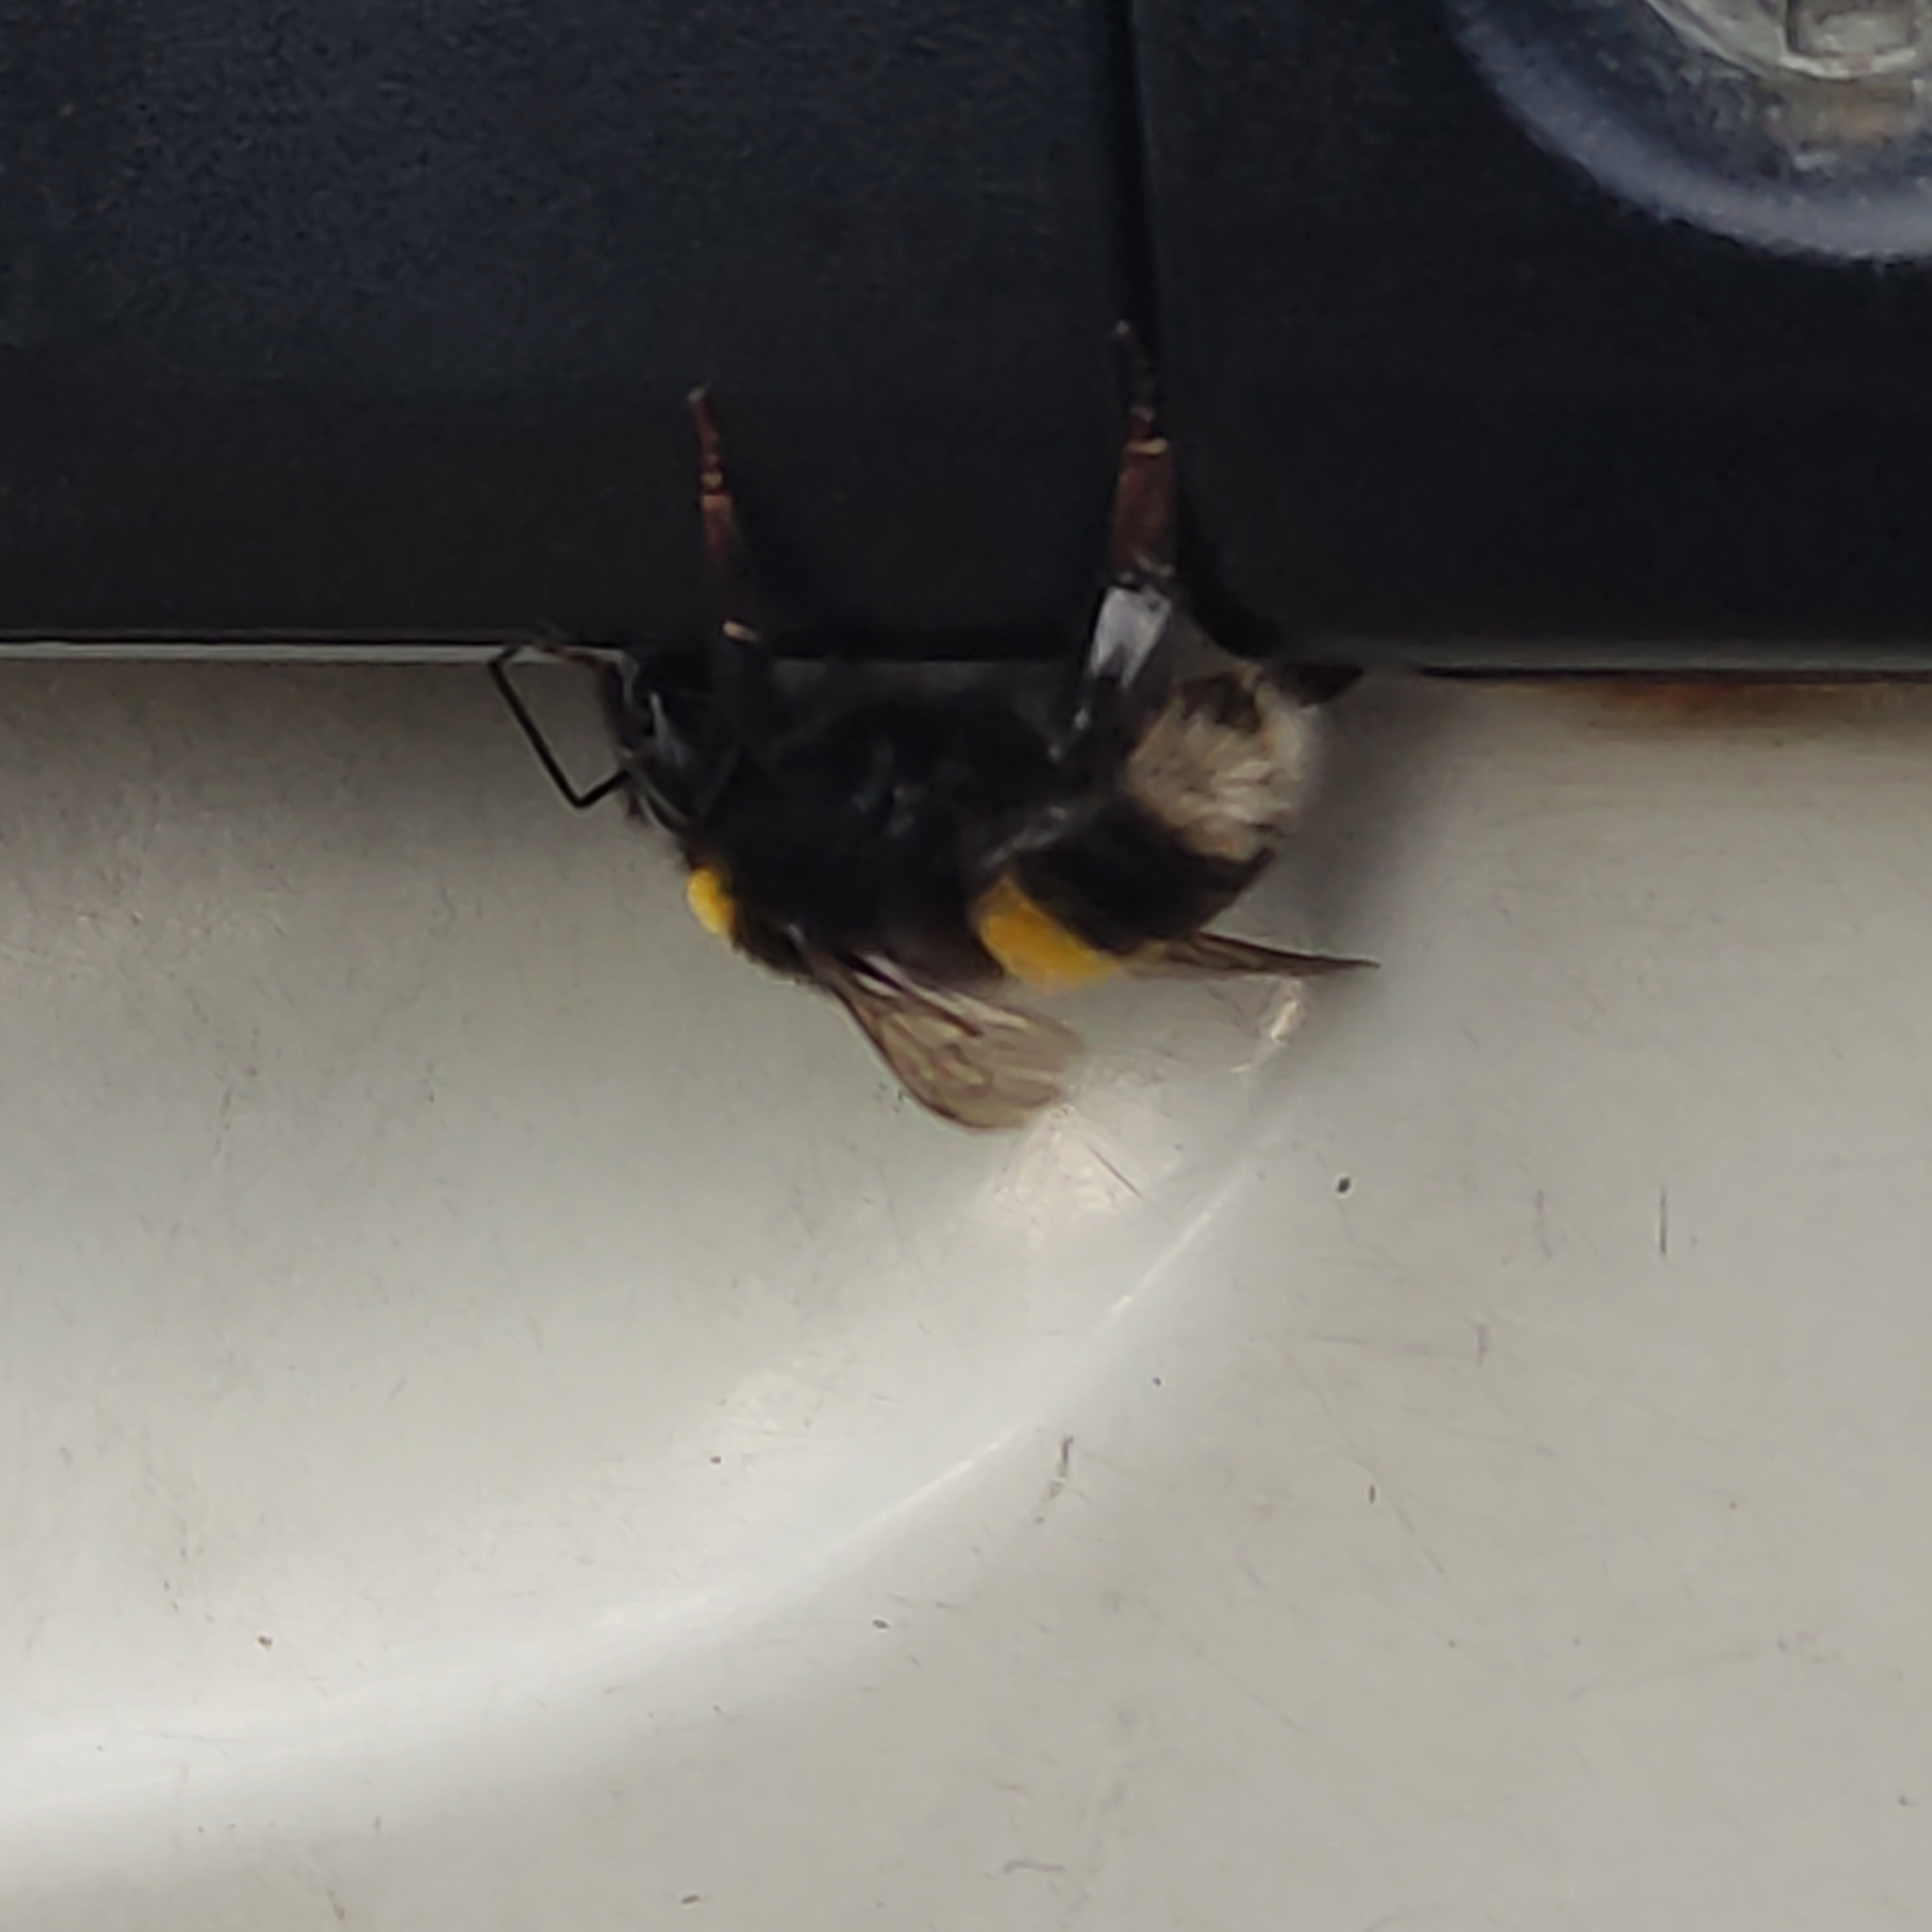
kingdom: Animalia
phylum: Arthropoda
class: Insecta
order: Hymenoptera
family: Apidae
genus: Bombus
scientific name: Bombus terrestris
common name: Buff-tailed bumblebee
